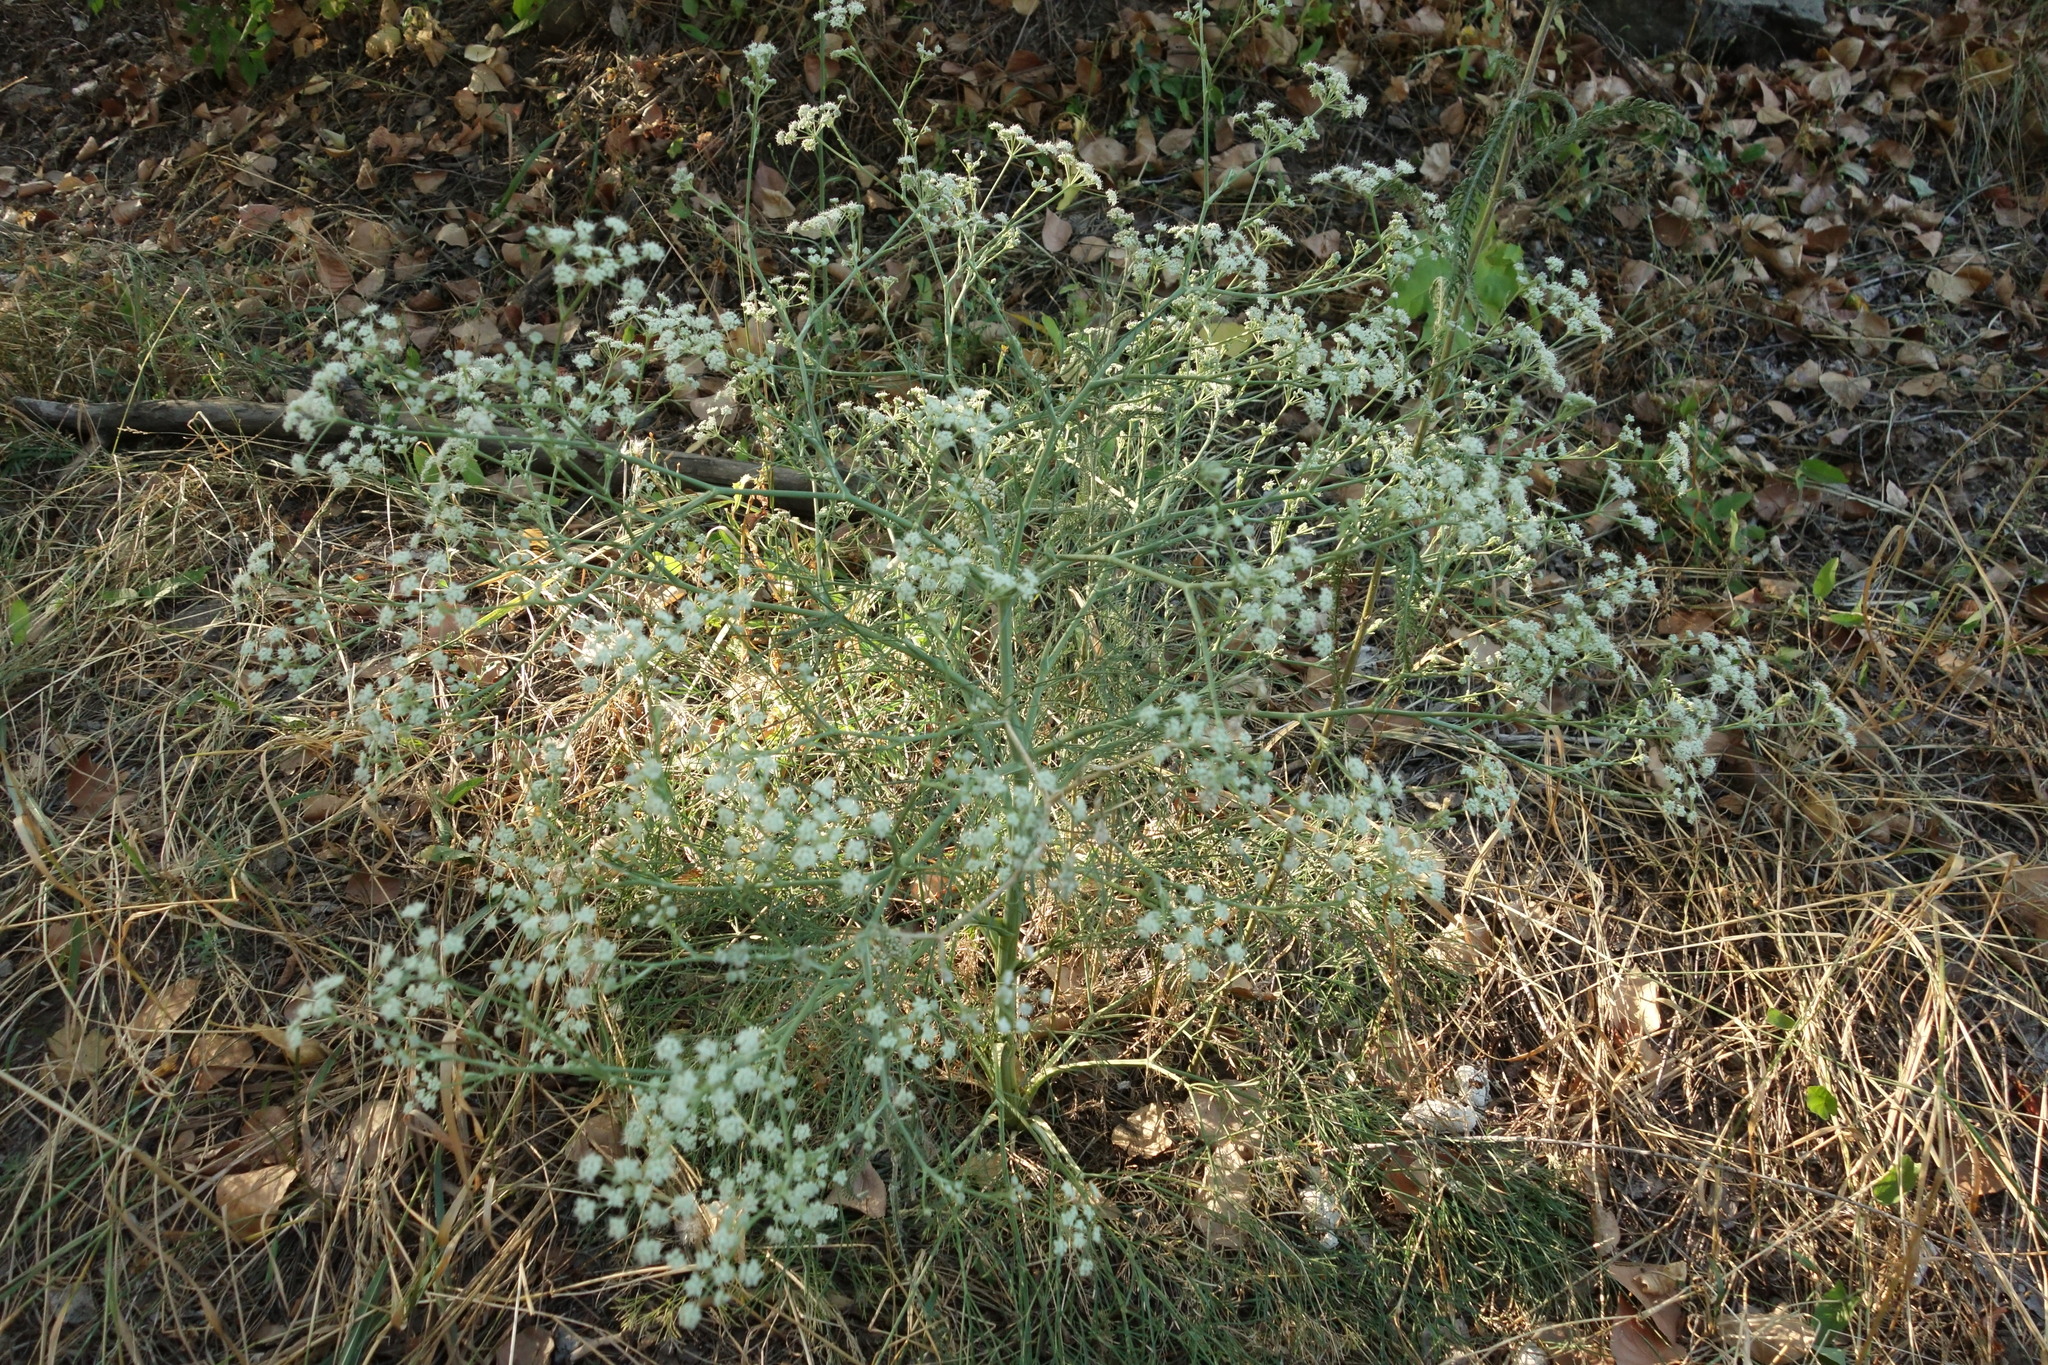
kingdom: Plantae
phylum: Tracheophyta
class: Magnoliopsida
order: Apiales
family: Apiaceae
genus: Seseli
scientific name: Seseli arenarium
